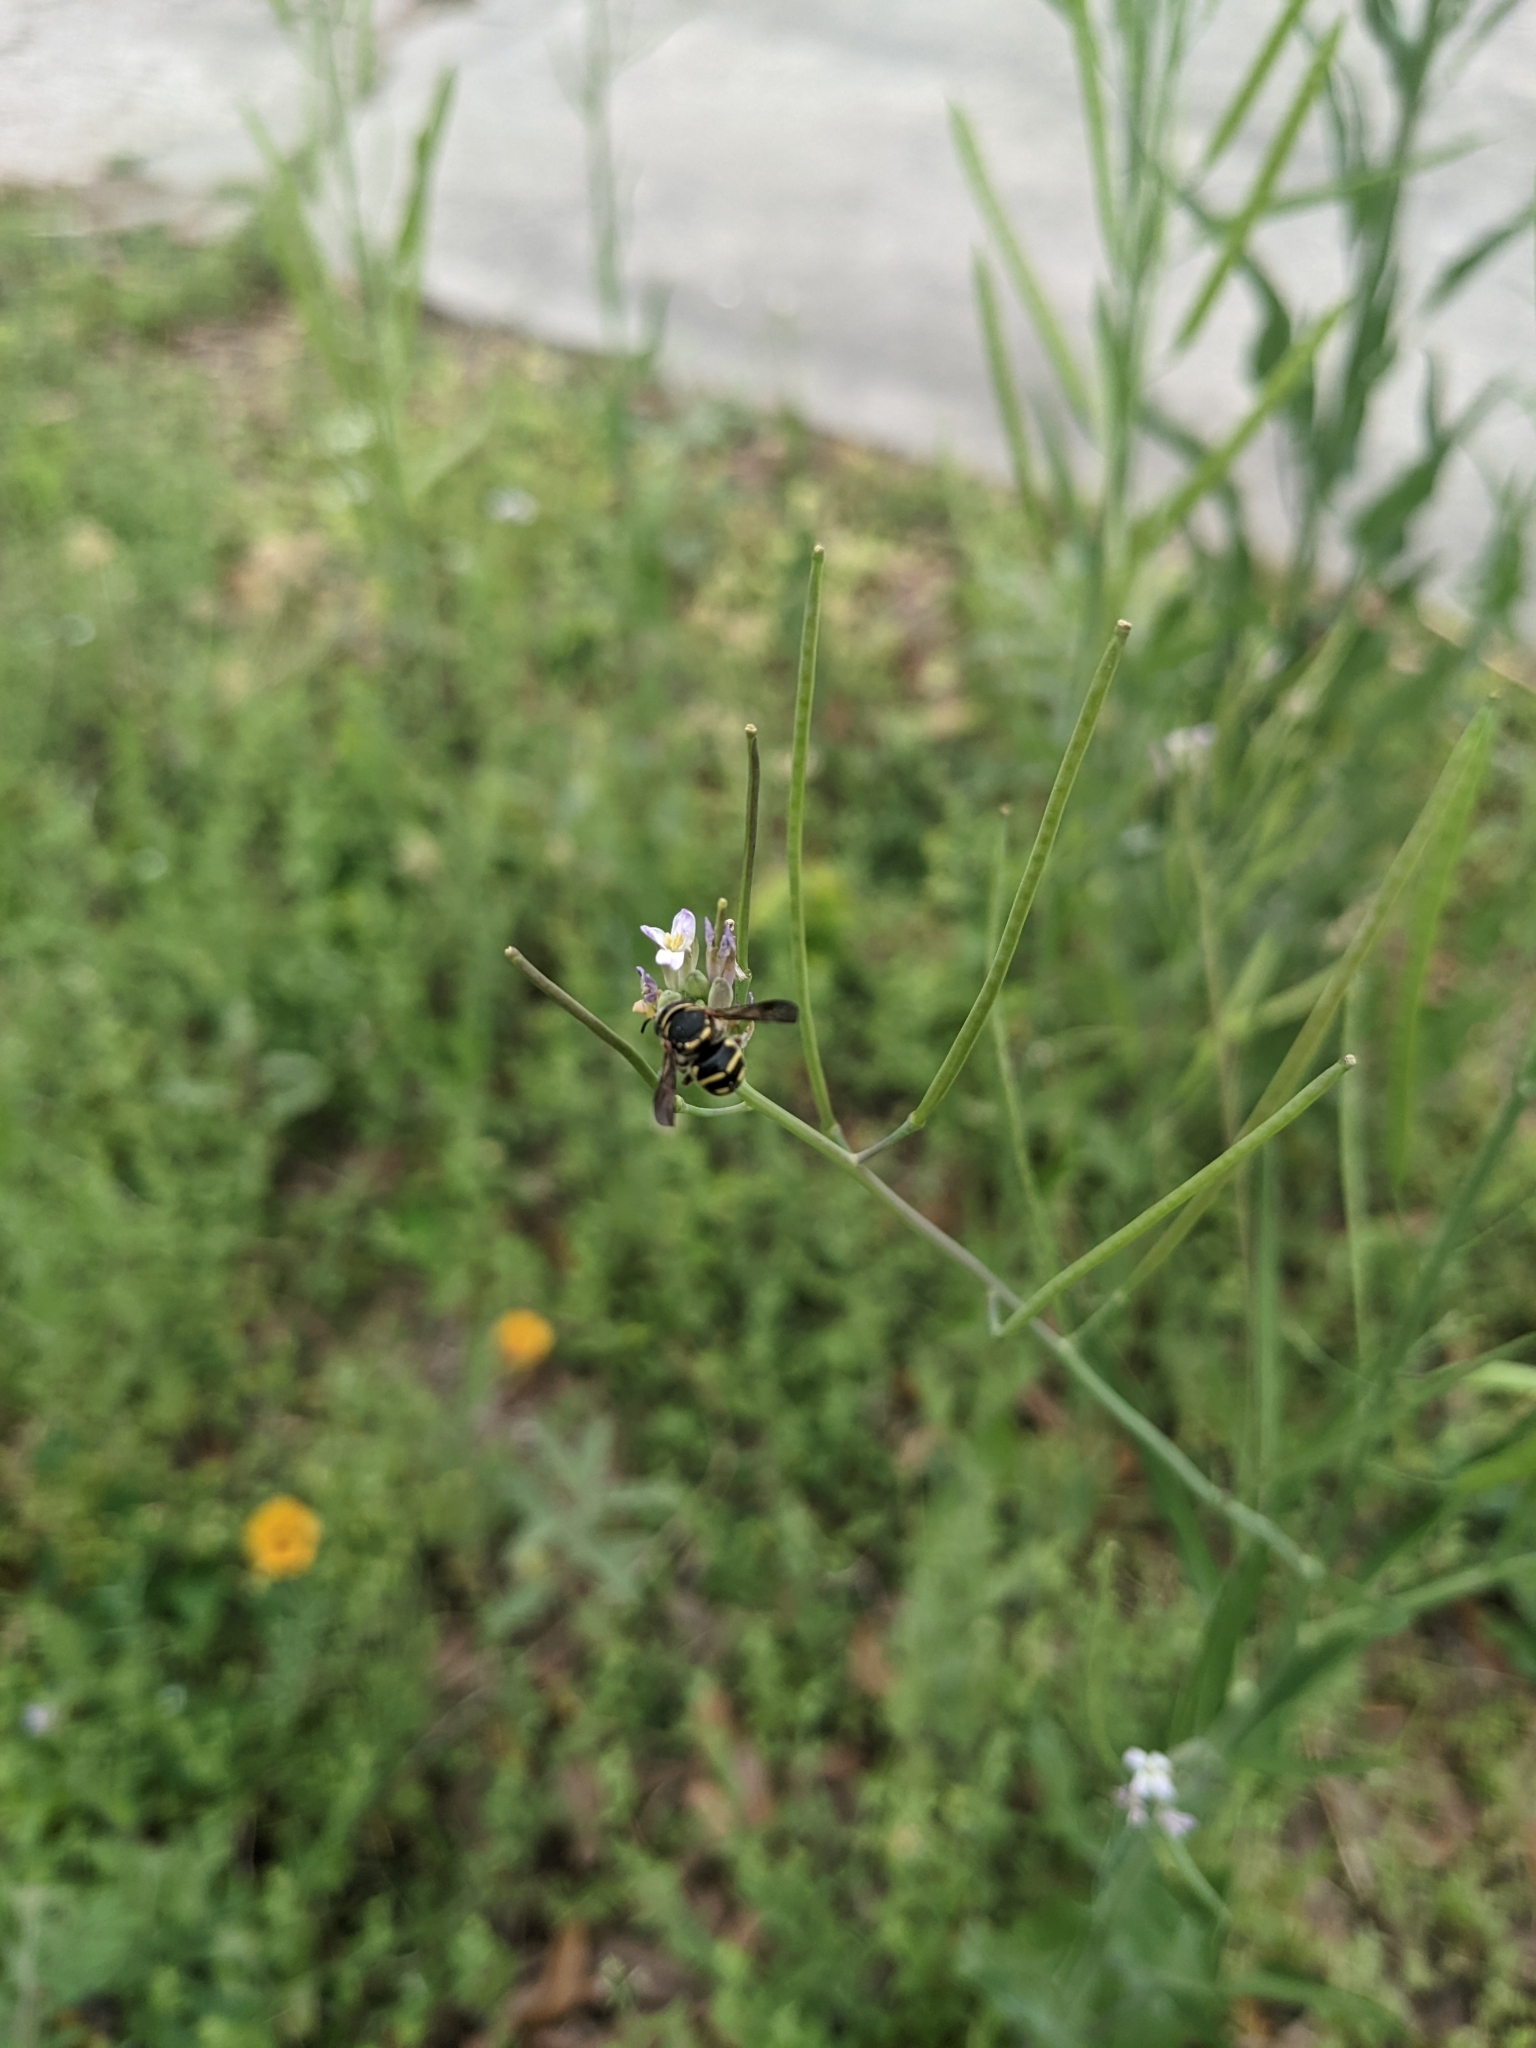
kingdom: Animalia
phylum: Arthropoda
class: Insecta
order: Hymenoptera
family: Megachilidae
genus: Anthidiellum
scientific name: Anthidiellum notatum
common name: Northern rotund-resin bee
